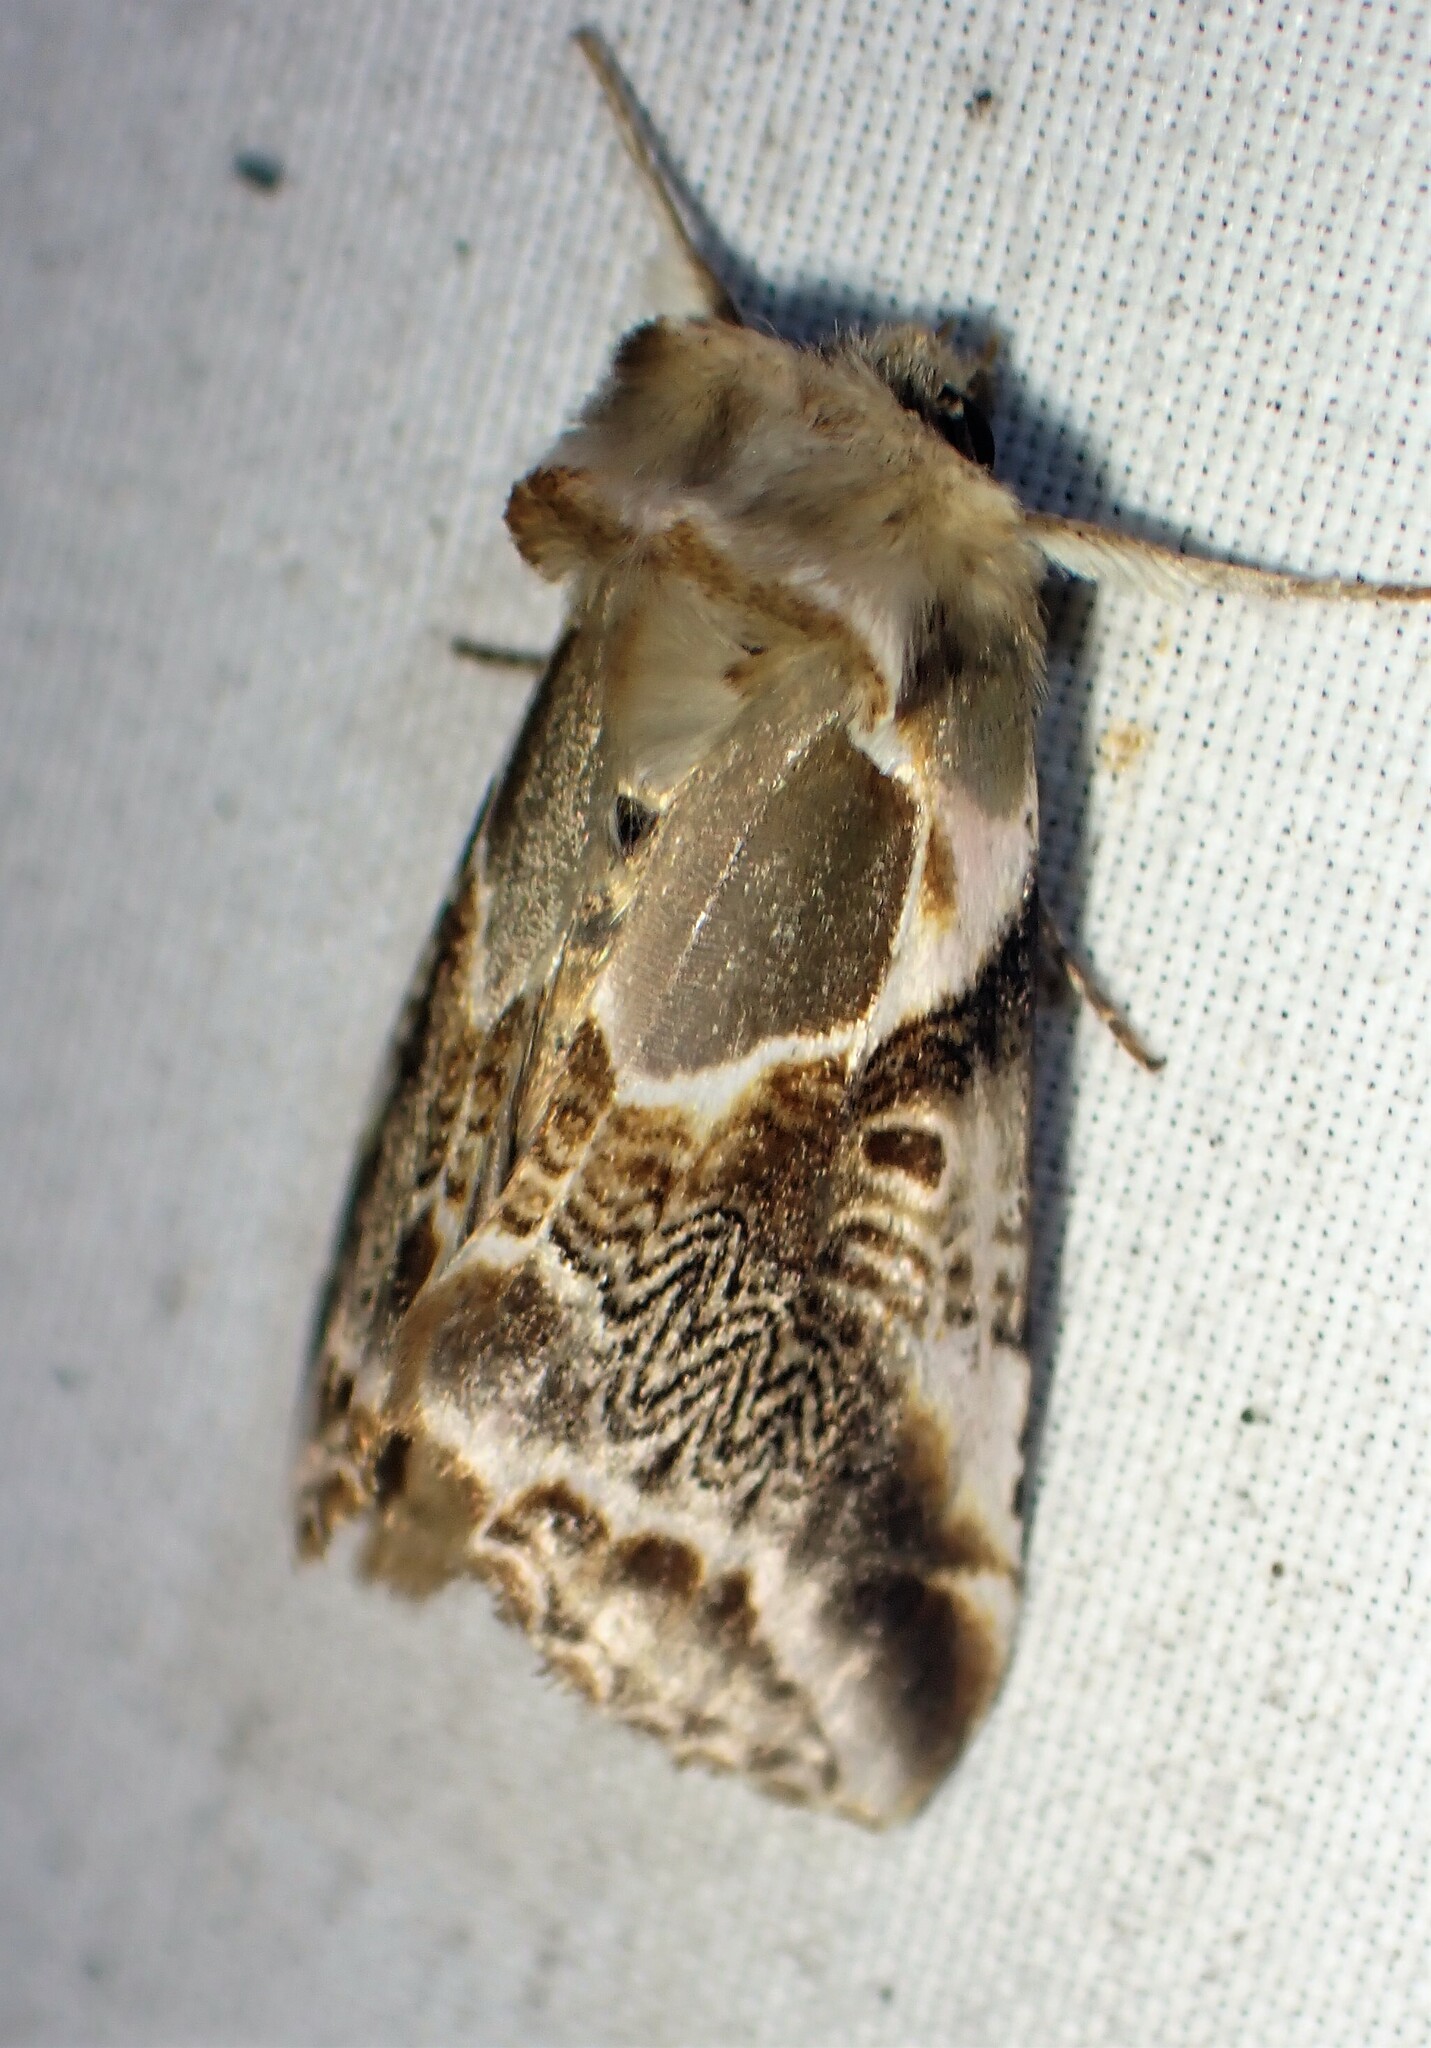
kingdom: Animalia
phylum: Arthropoda
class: Insecta
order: Lepidoptera
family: Drepanidae
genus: Habrosyne
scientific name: Habrosyne scripta
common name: Lettered habrosyne moth
